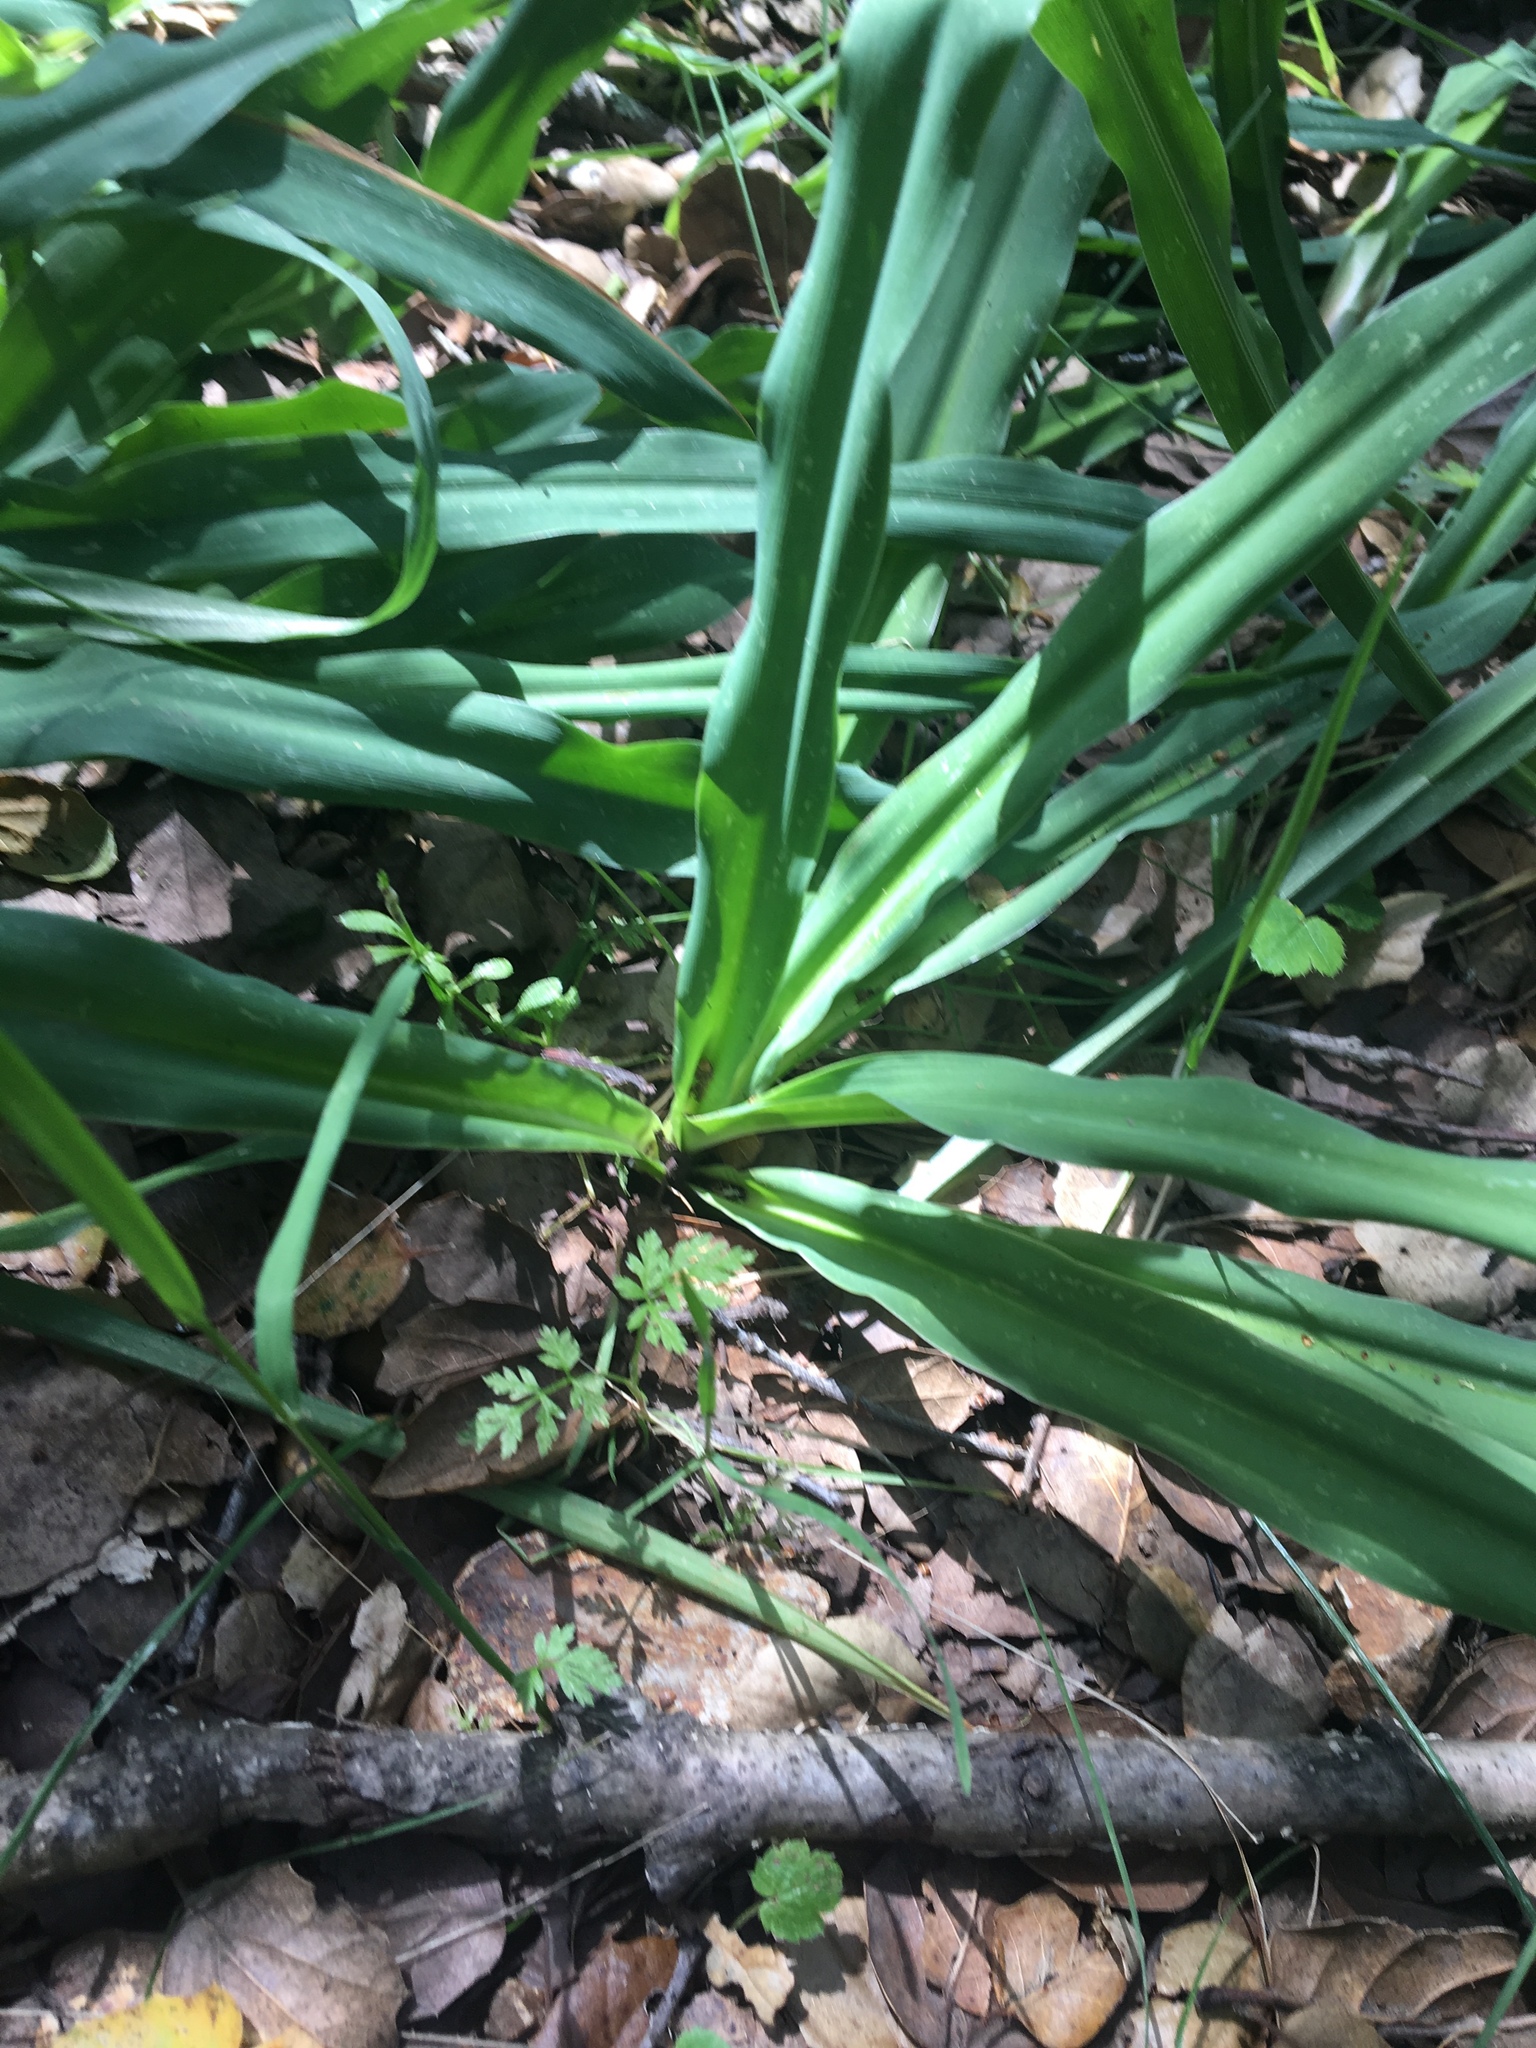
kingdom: Plantae
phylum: Tracheophyta
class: Liliopsida
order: Asparagales
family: Asparagaceae
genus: Chlorogalum
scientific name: Chlorogalum pomeridianum
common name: Amole
